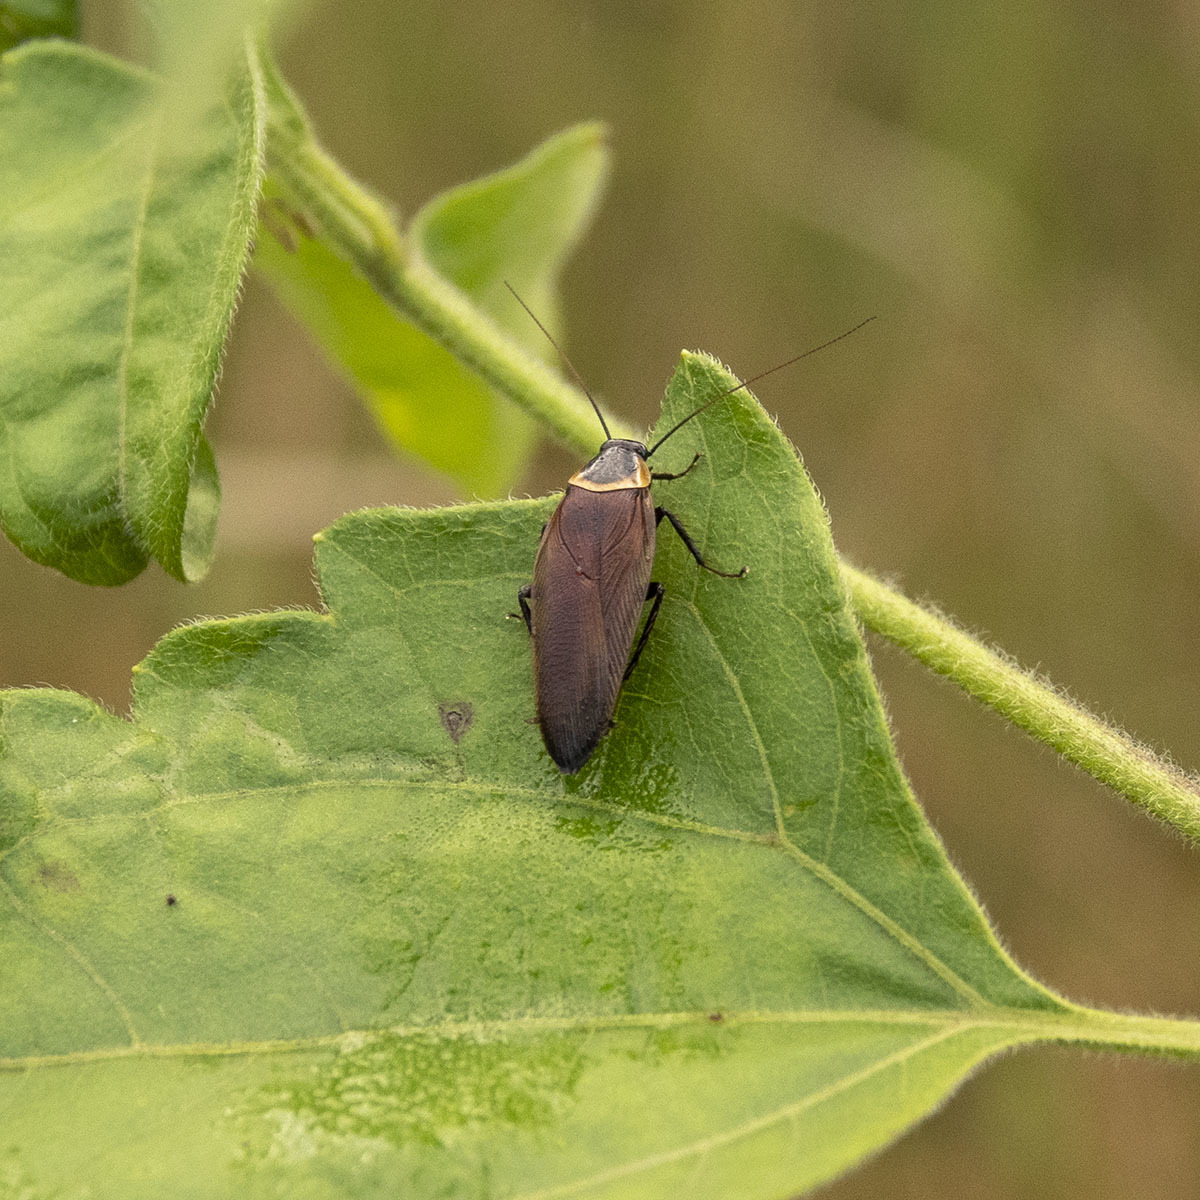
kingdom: Animalia
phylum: Arthropoda
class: Insecta
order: Blattodea
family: Ectobiidae
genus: Hemithyrsocera
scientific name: Hemithyrsocera palliata
